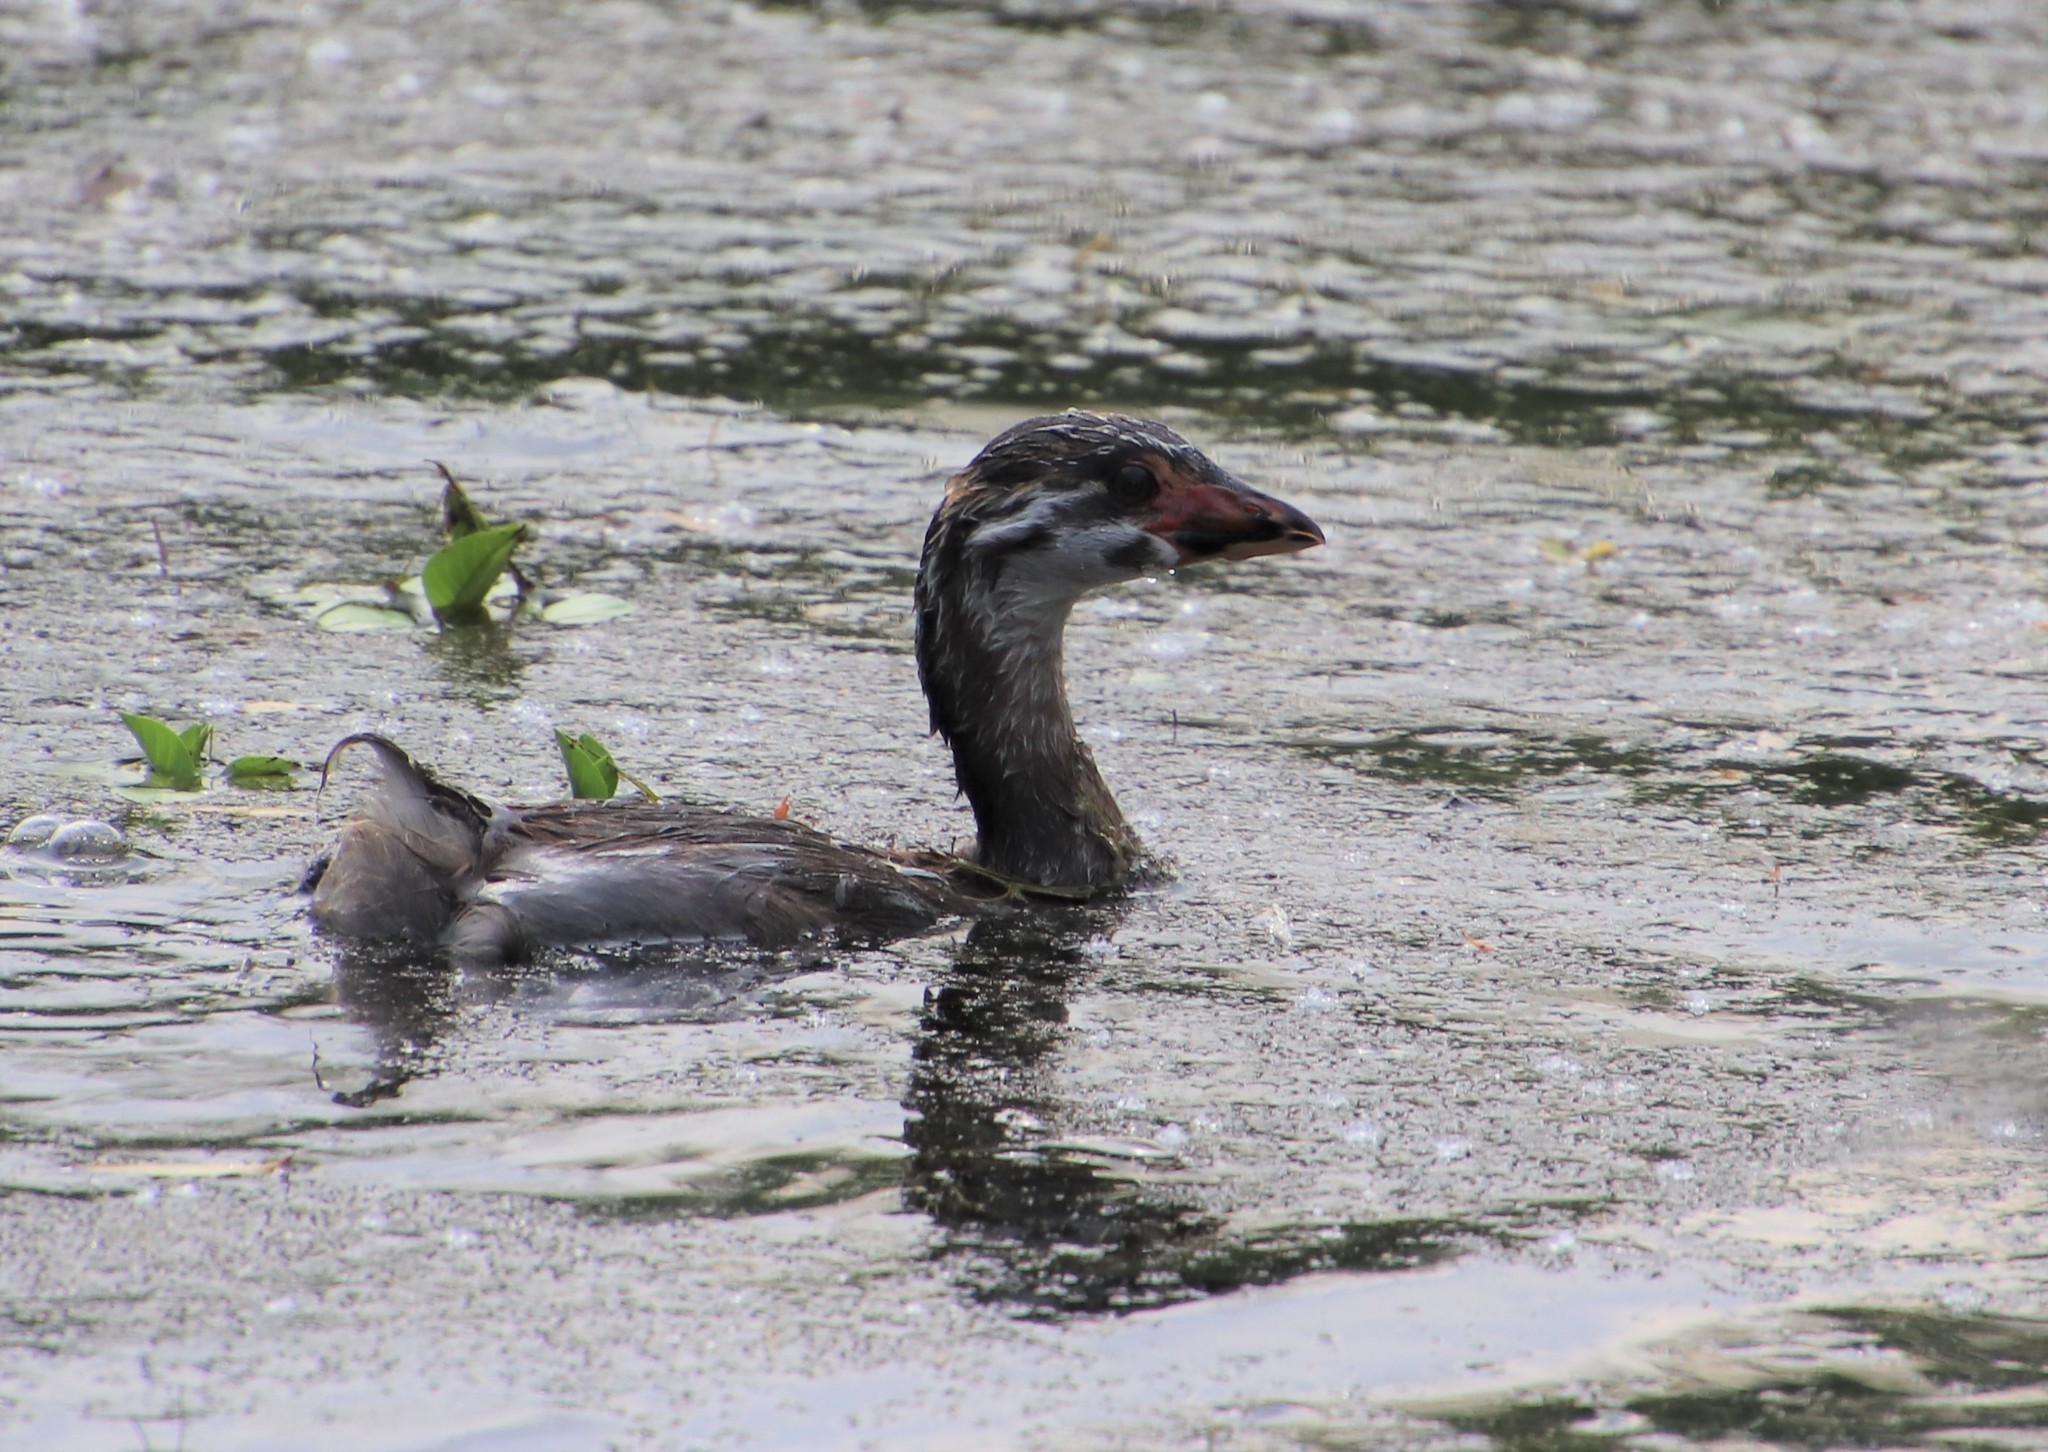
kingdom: Animalia
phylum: Chordata
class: Aves
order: Podicipediformes
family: Podicipedidae
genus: Podilymbus
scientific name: Podilymbus podiceps
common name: Pied-billed grebe
